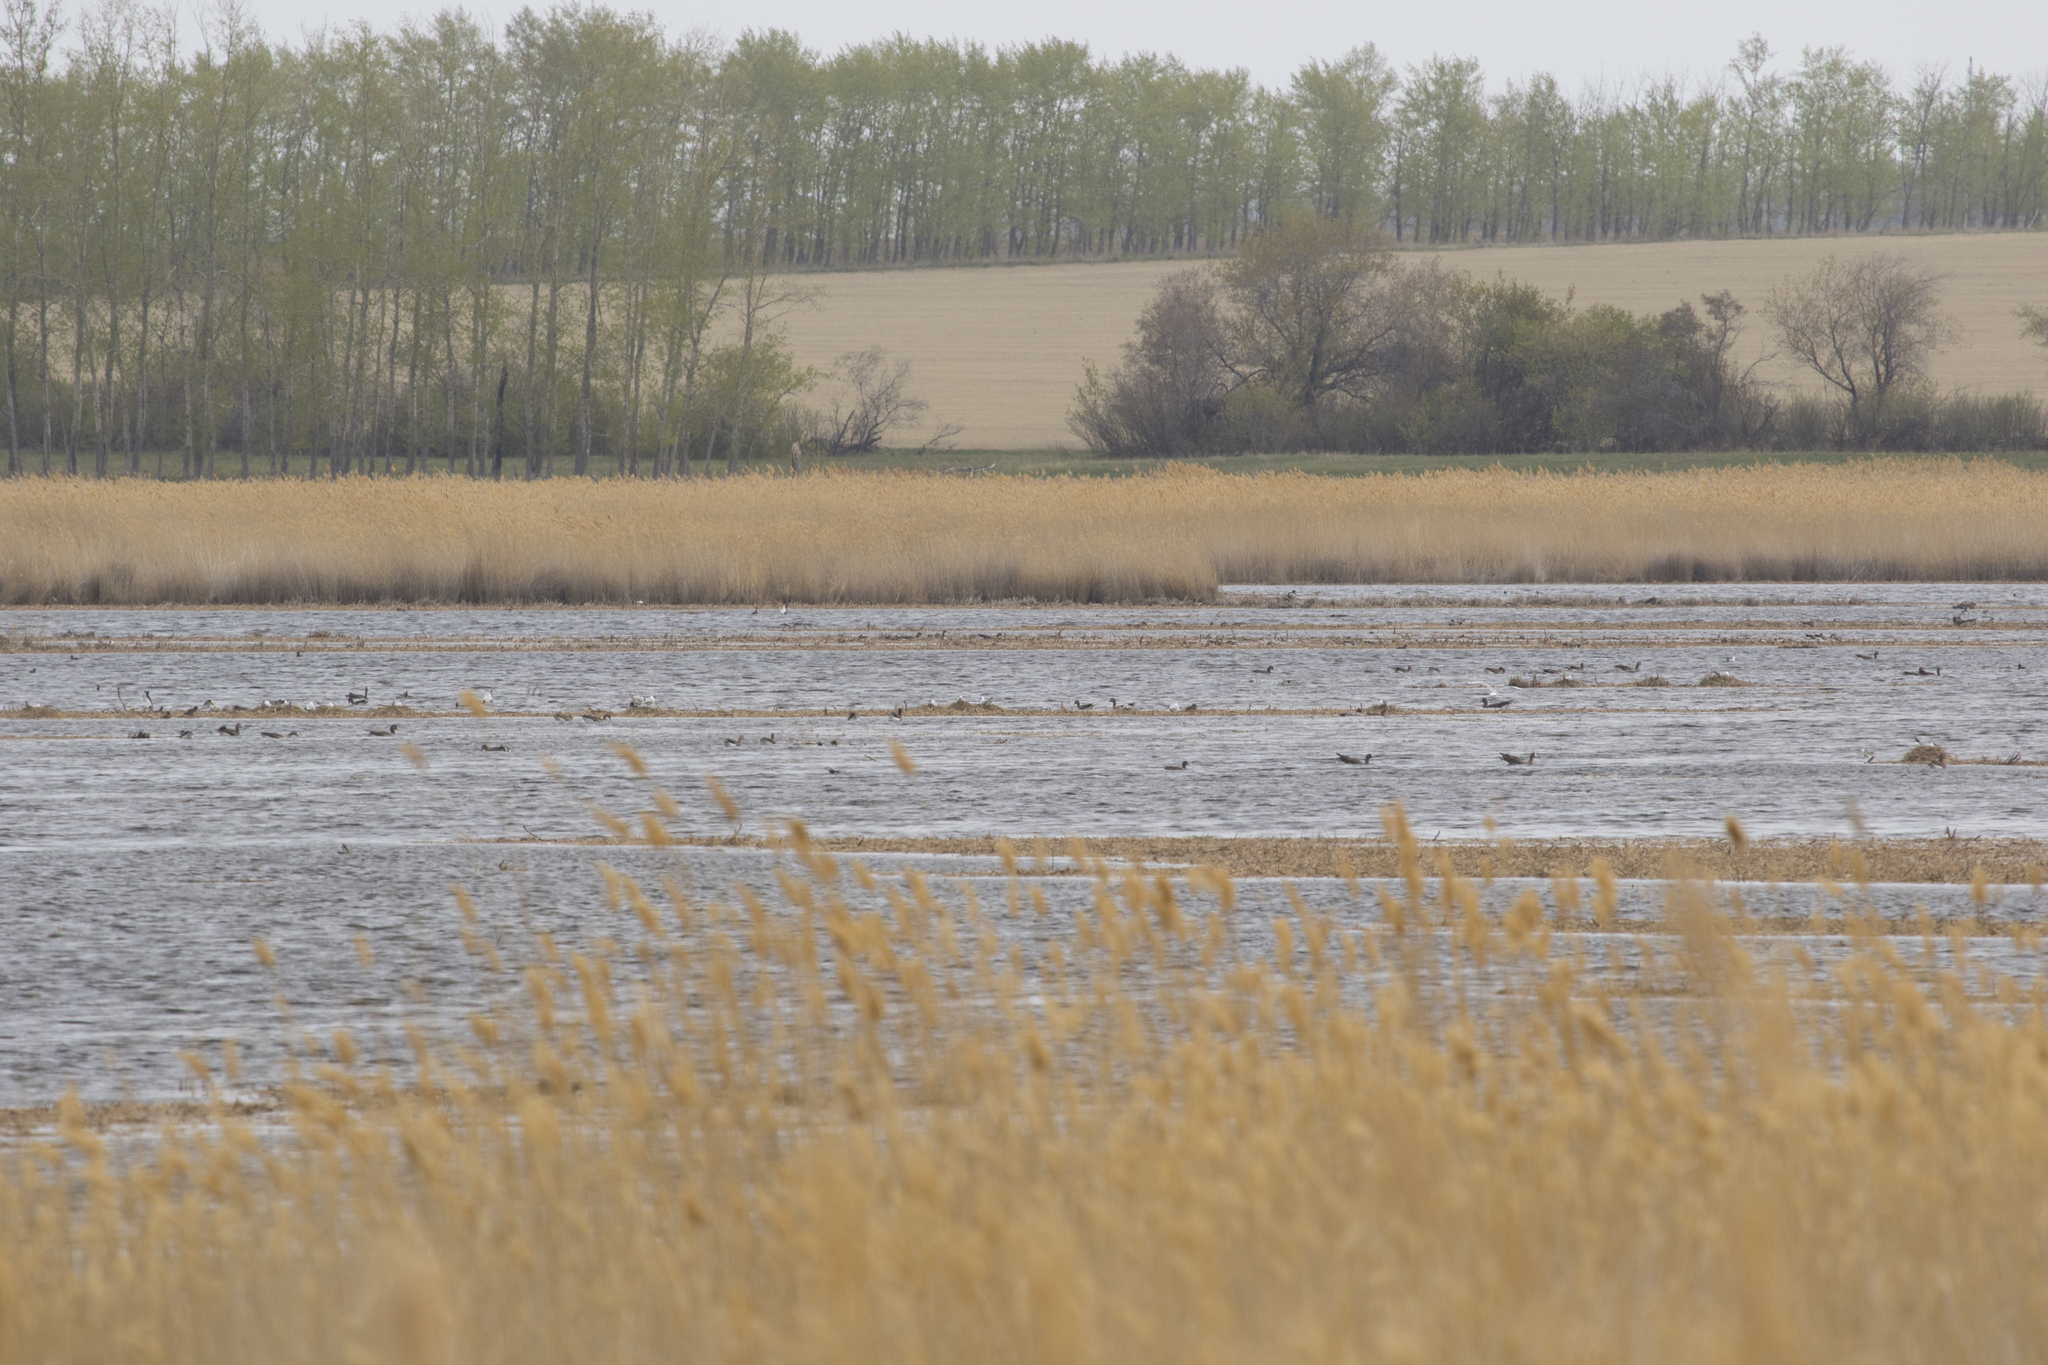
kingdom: Animalia
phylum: Chordata
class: Aves
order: Anseriformes
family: Anatidae
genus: Anser
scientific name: Anser albifrons
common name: Greater white-fronted goose
